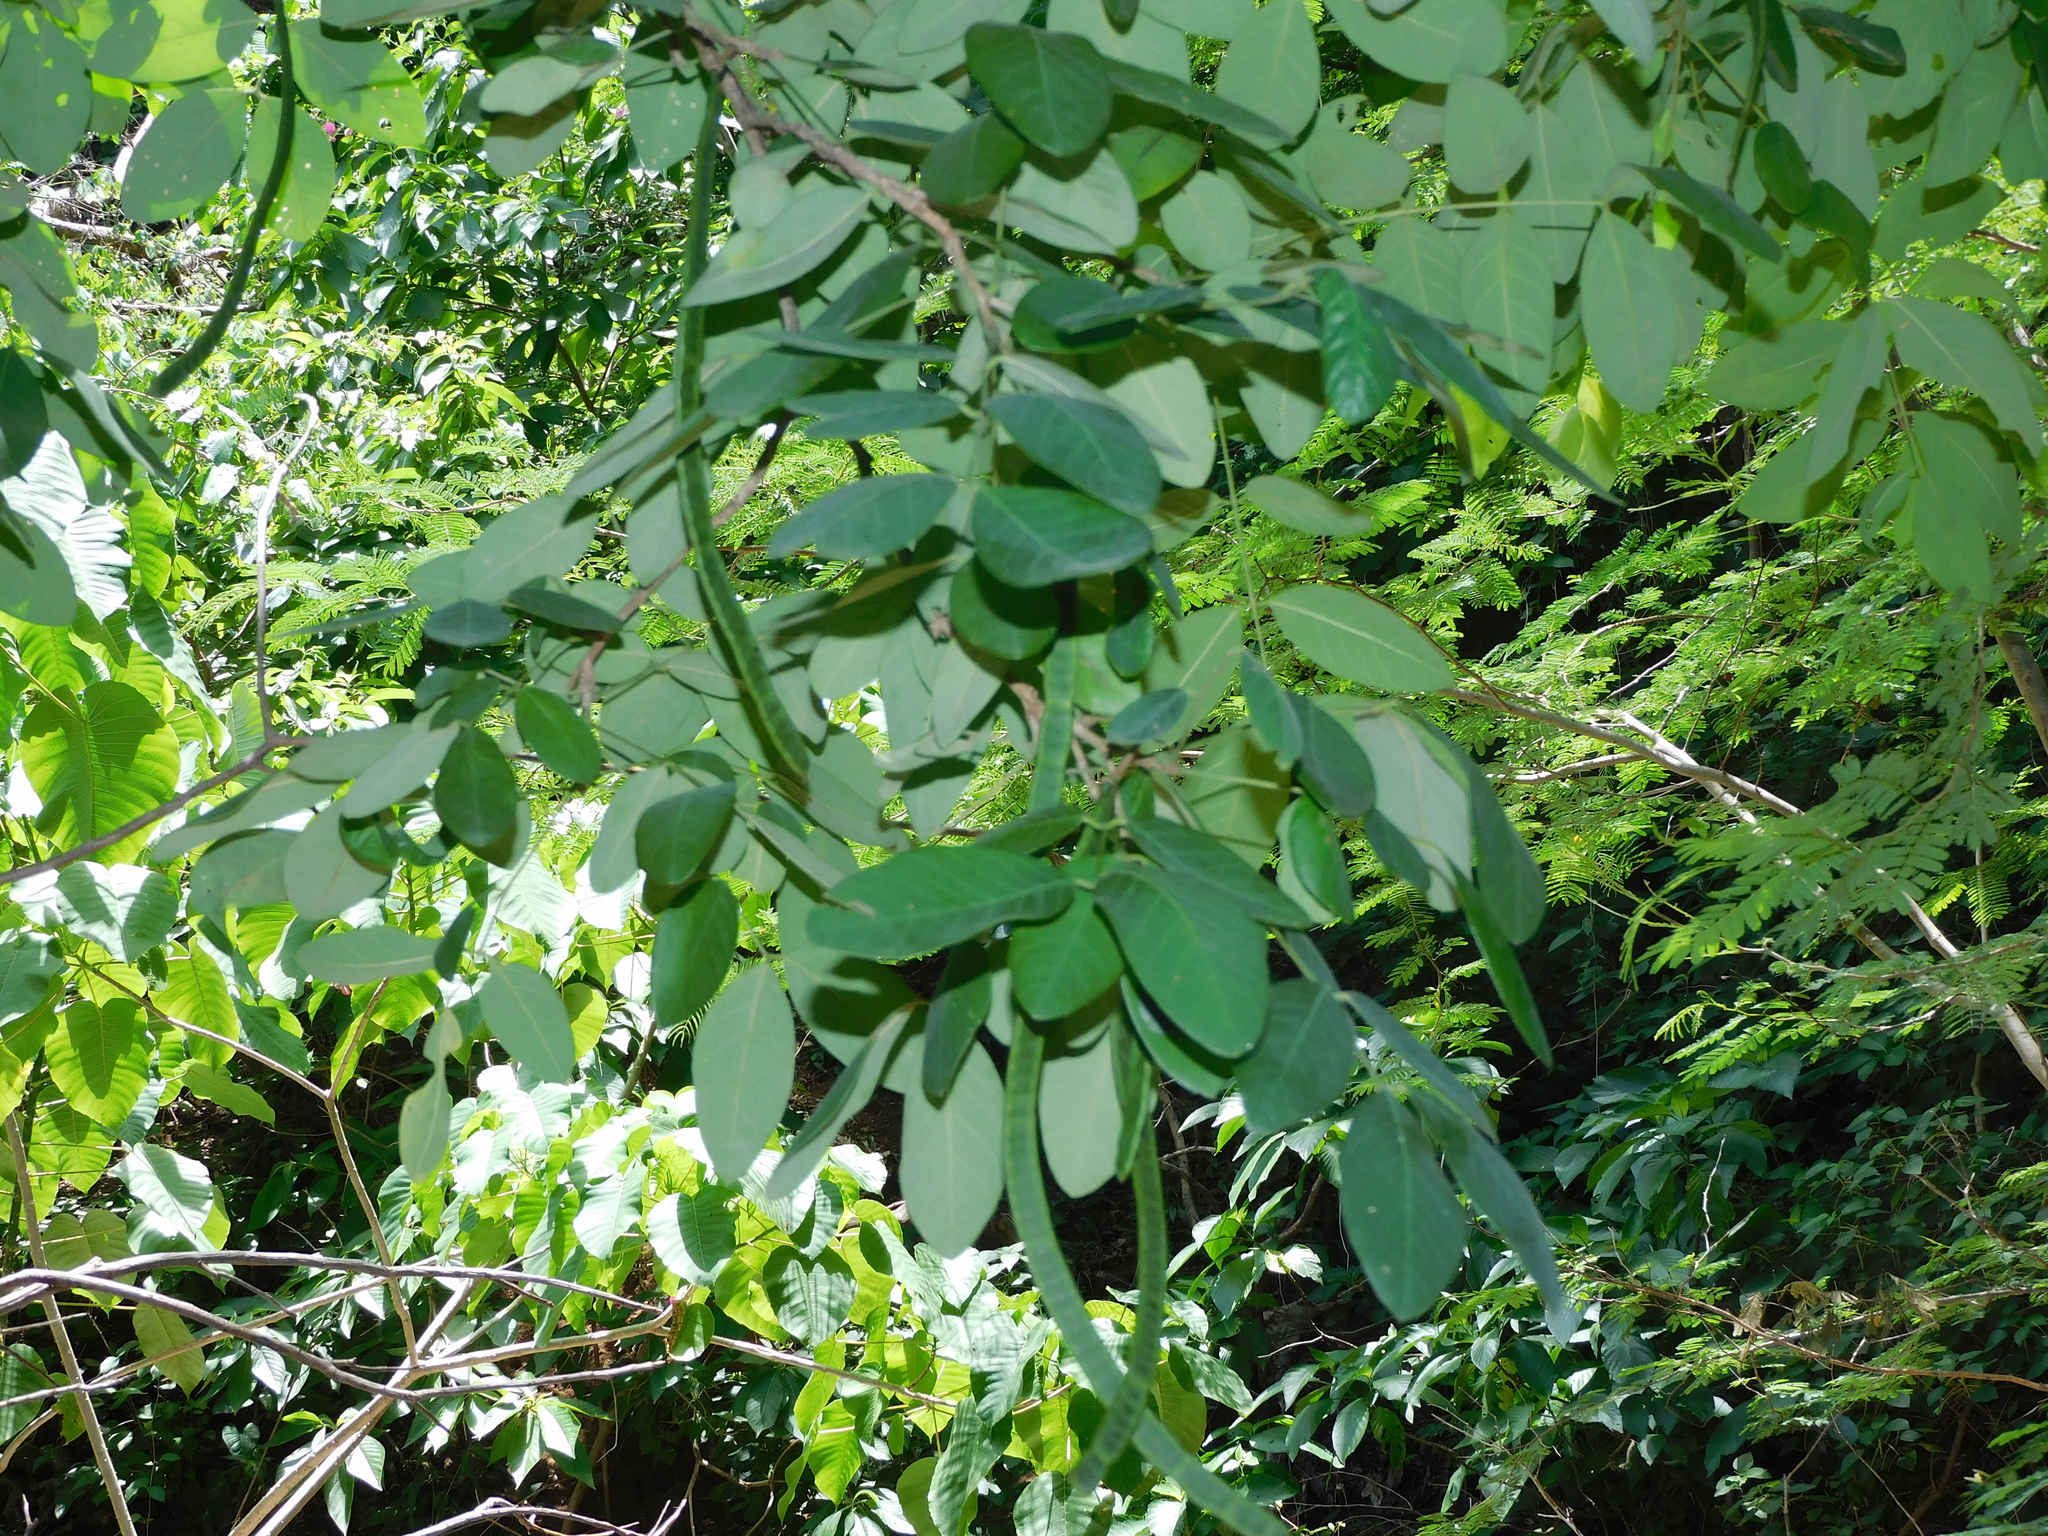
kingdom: Plantae
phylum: Tracheophyta
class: Magnoliopsida
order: Fabales
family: Fabaceae
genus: Senna
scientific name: Senna atomaria
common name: Flor de san jose
